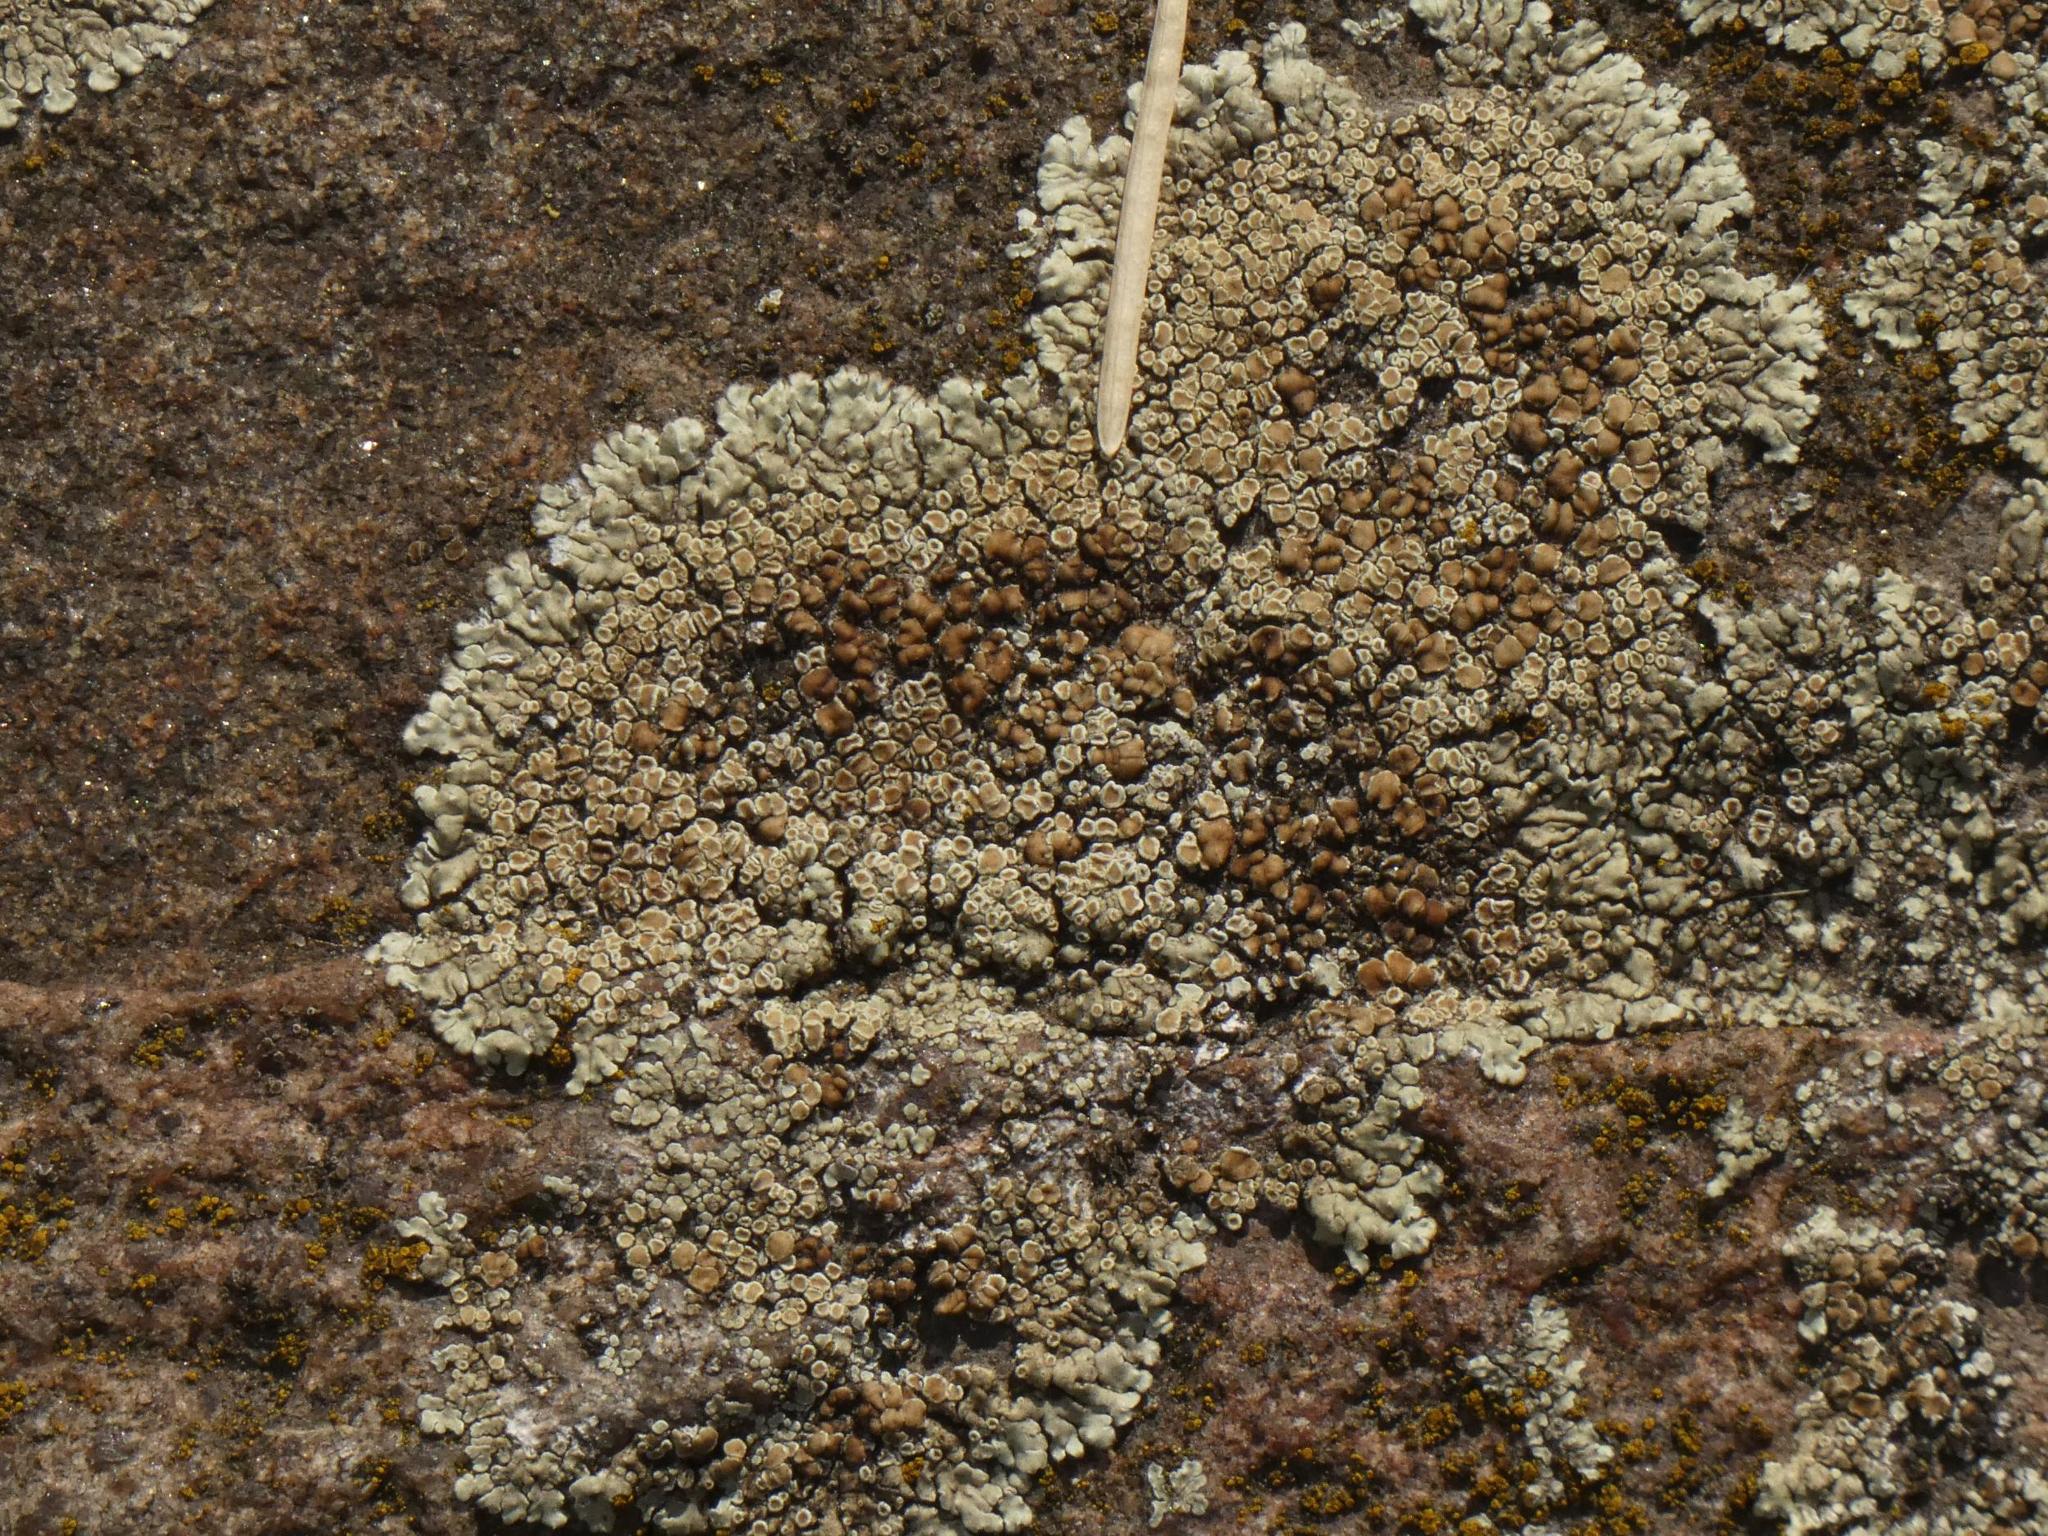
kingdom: Fungi
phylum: Ascomycota
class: Lecanoromycetes
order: Lecanorales
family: Lecanoraceae
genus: Protoparmeliopsis
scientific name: Protoparmeliopsis muralis
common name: Stonewall rim lichen
